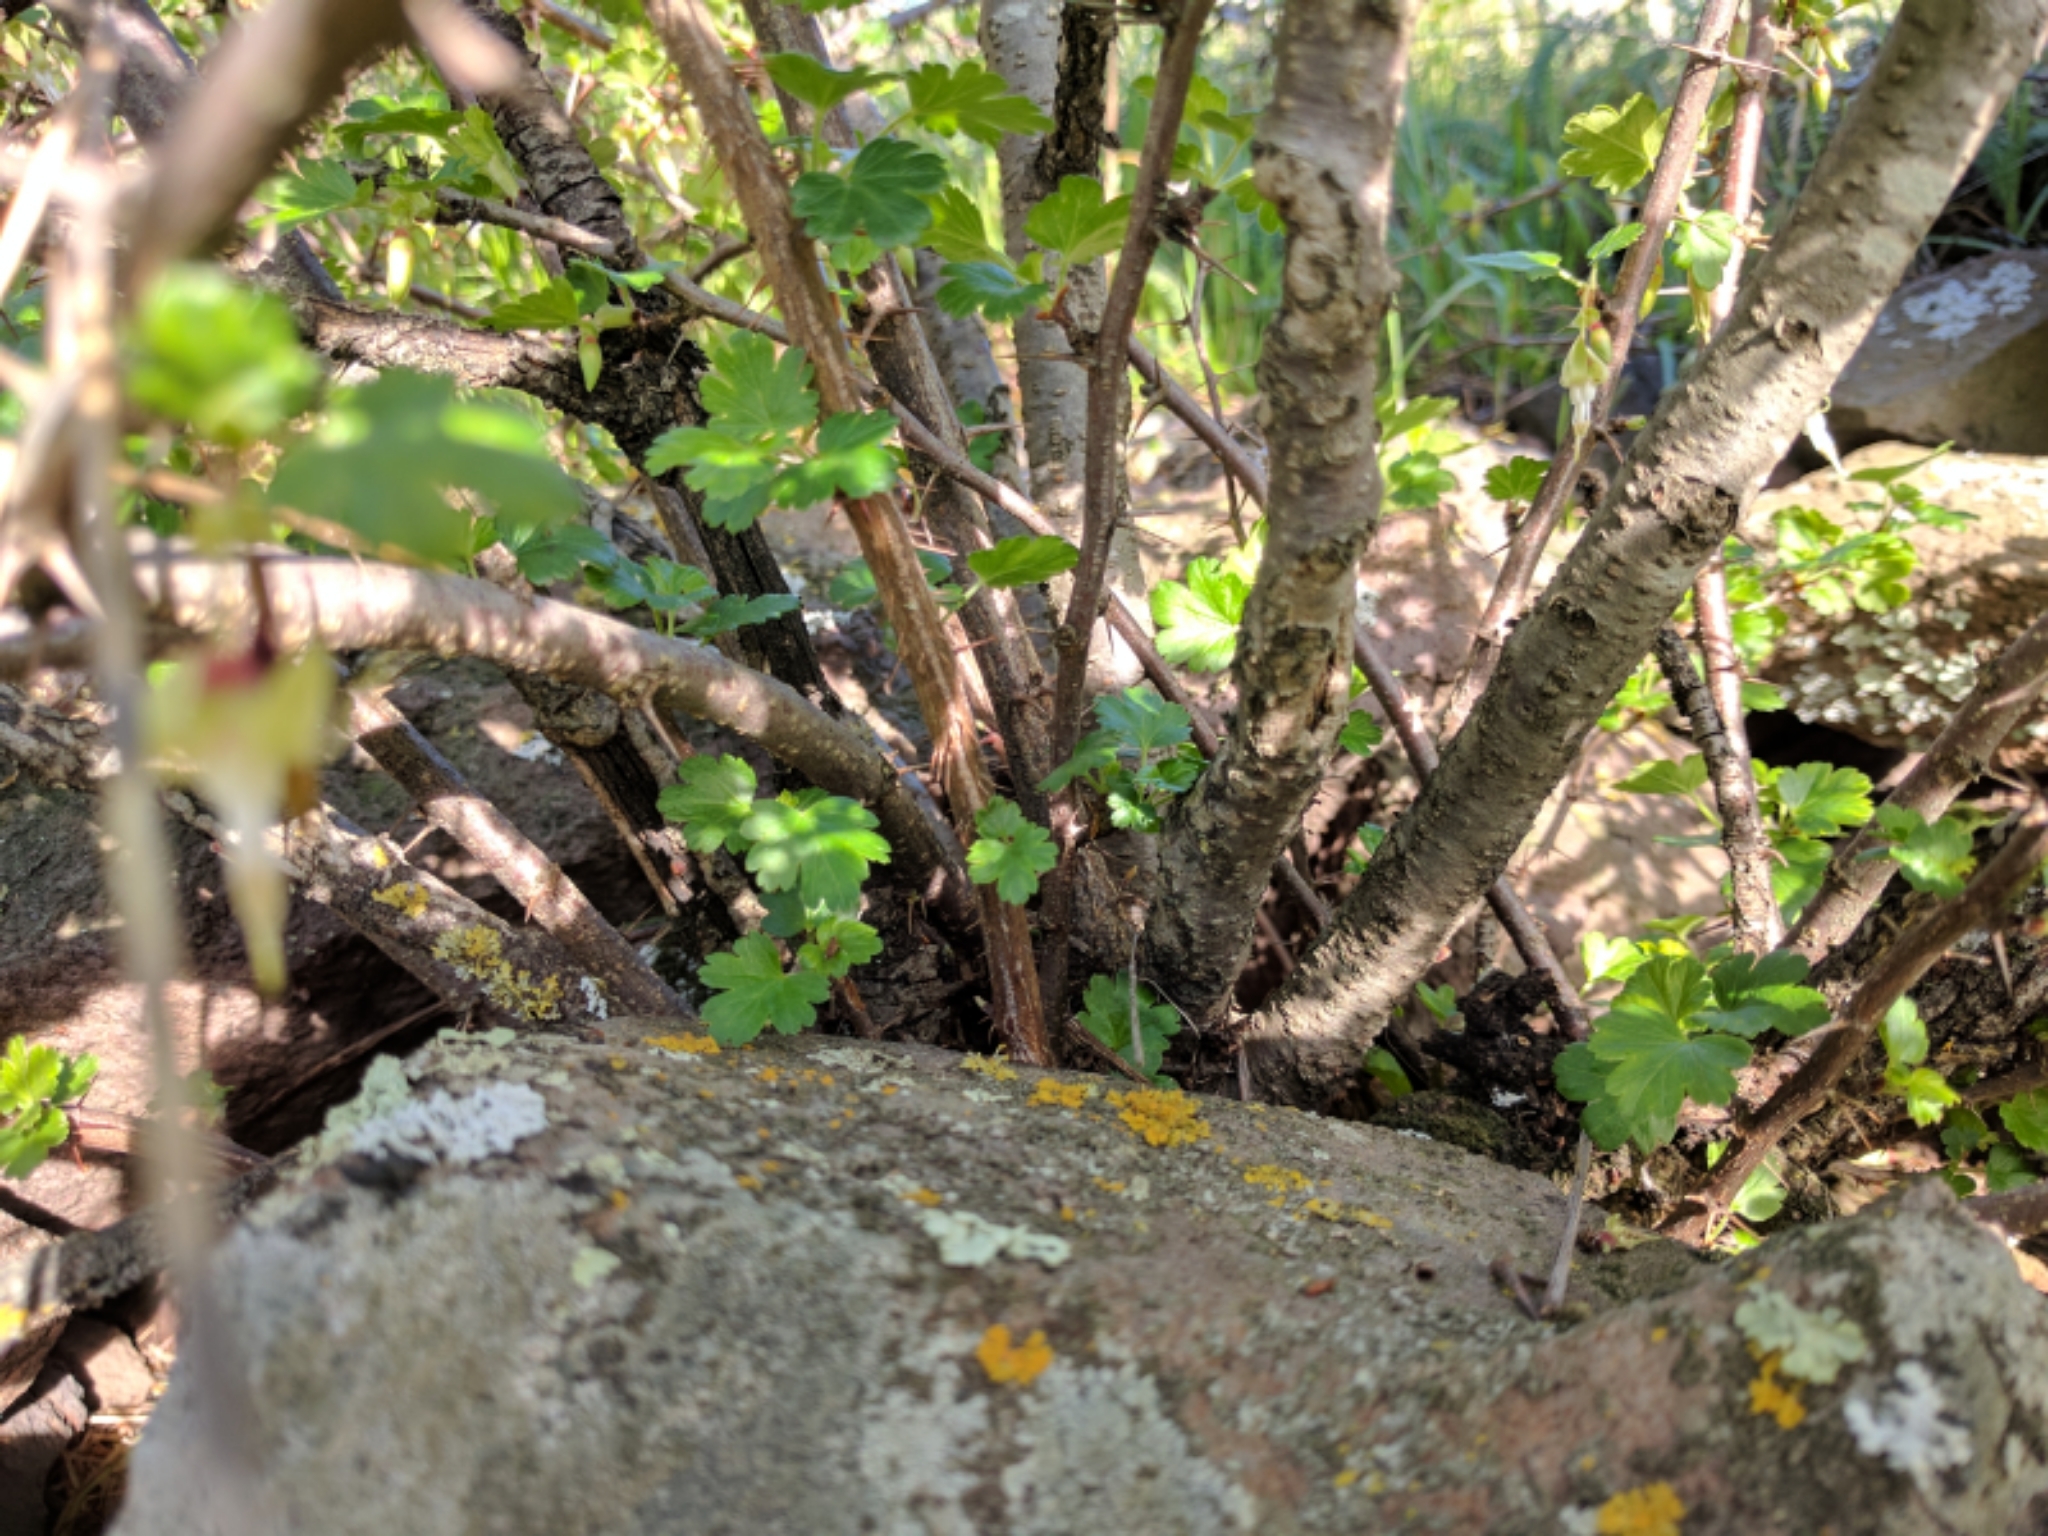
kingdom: Plantae
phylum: Tracheophyta
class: Magnoliopsida
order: Saxifragales
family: Grossulariaceae
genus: Ribes
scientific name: Ribes californicum
